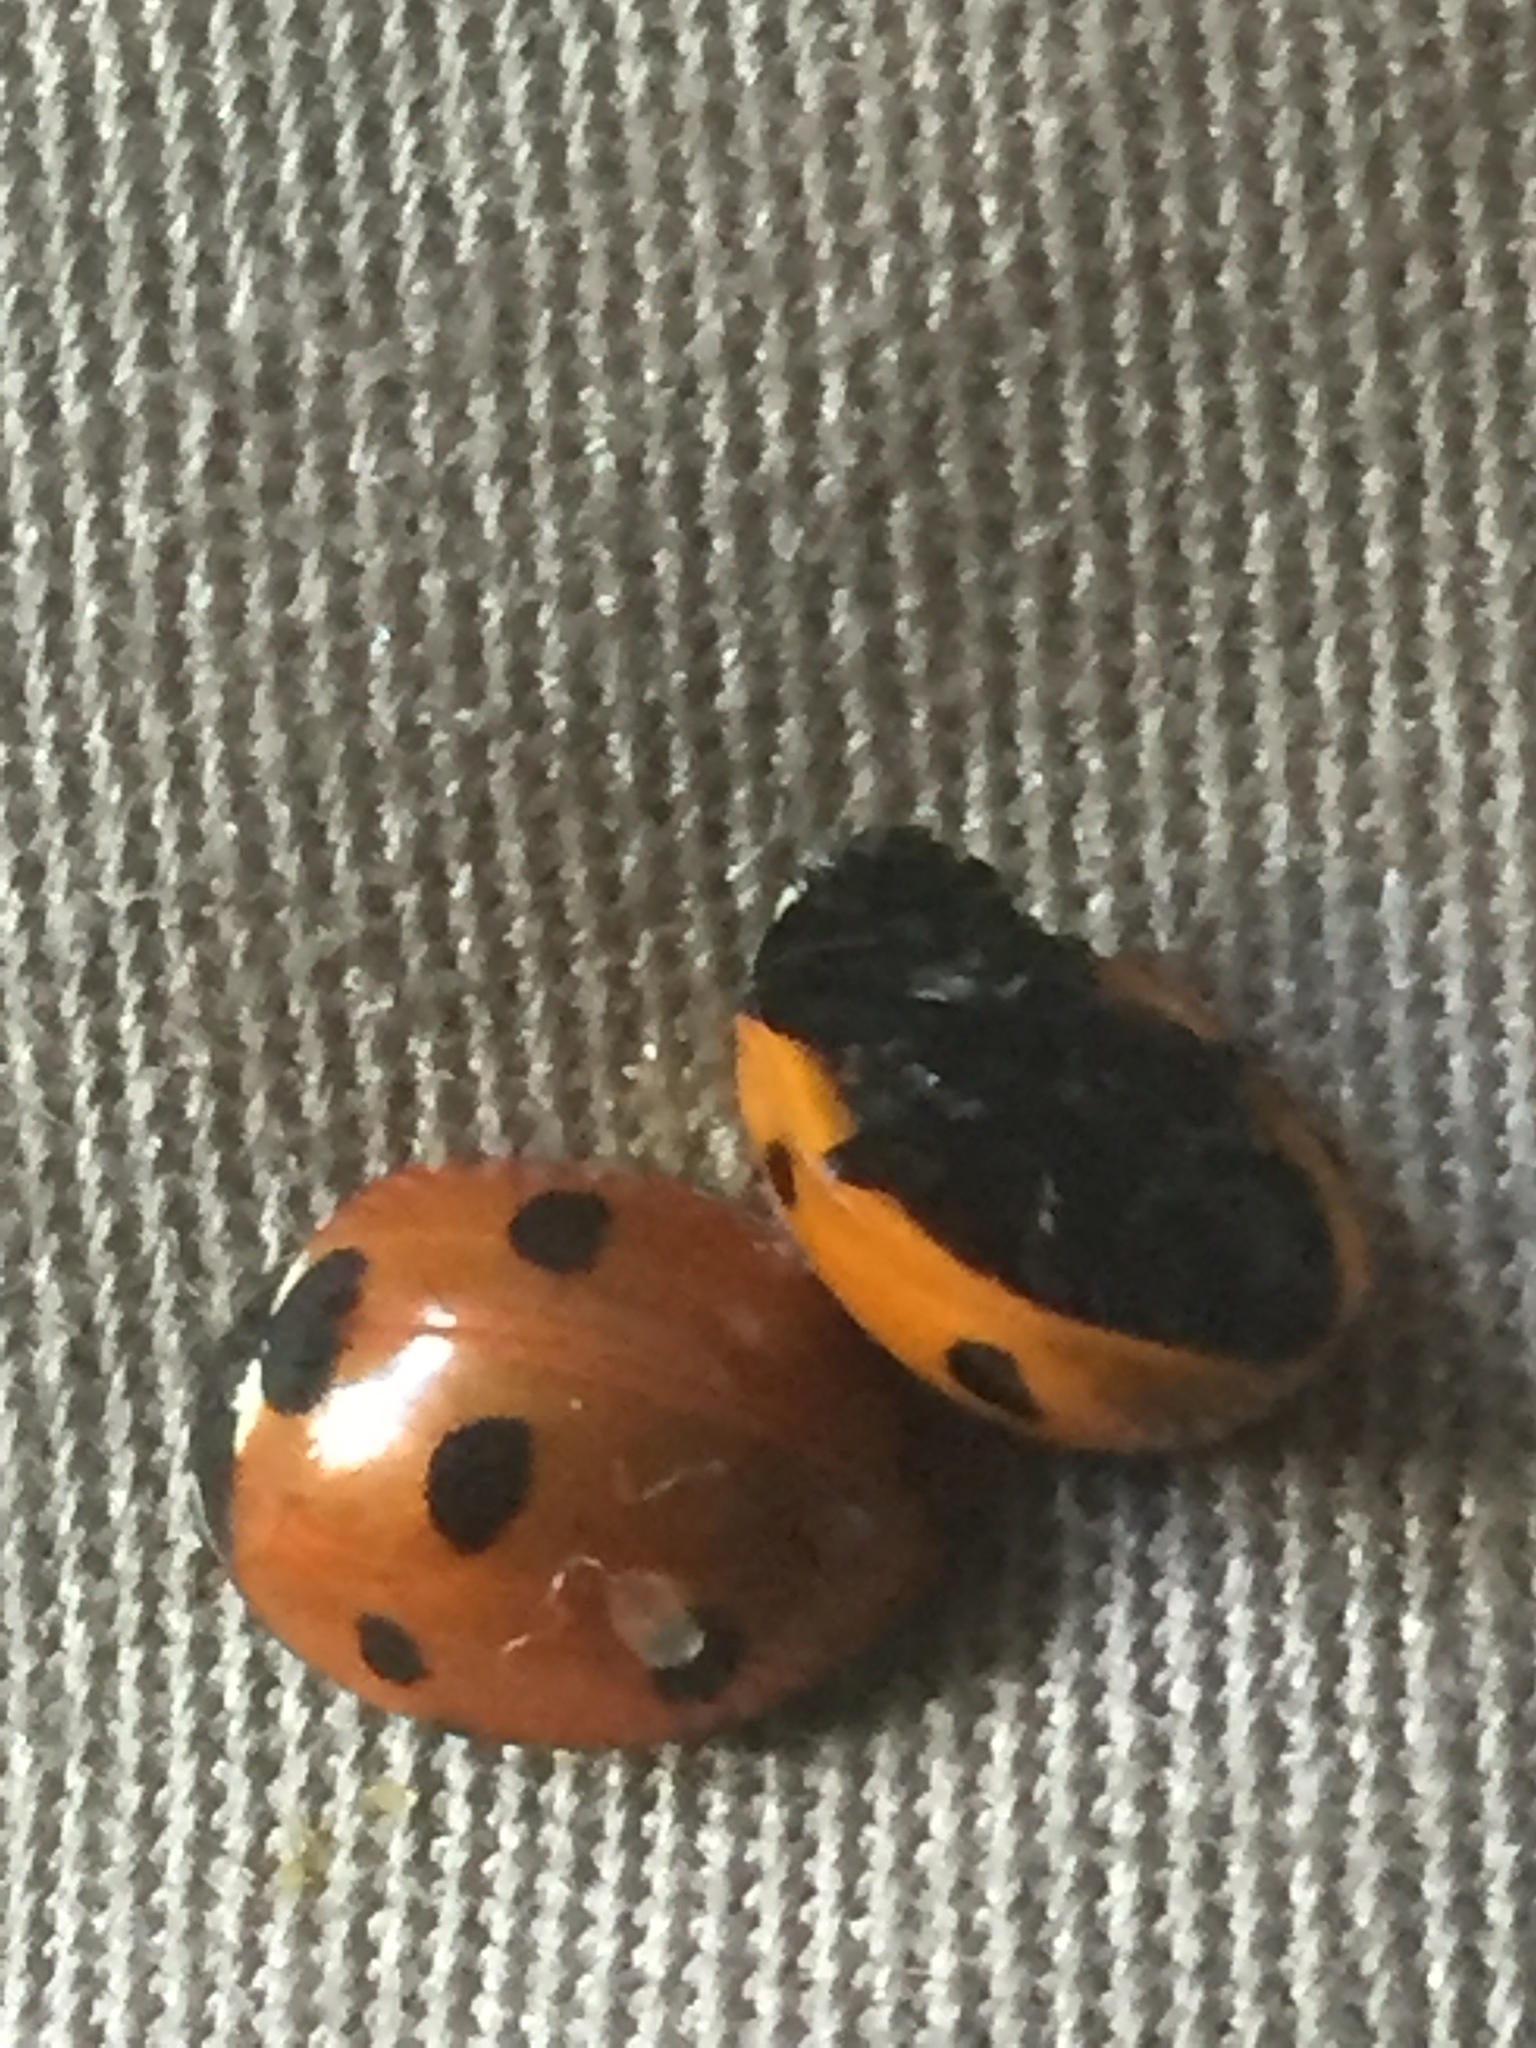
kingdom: Animalia
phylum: Arthropoda
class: Insecta
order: Coleoptera
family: Coccinellidae
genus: Coccinella
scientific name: Coccinella septempunctata
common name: Sevenspotted lady beetle
